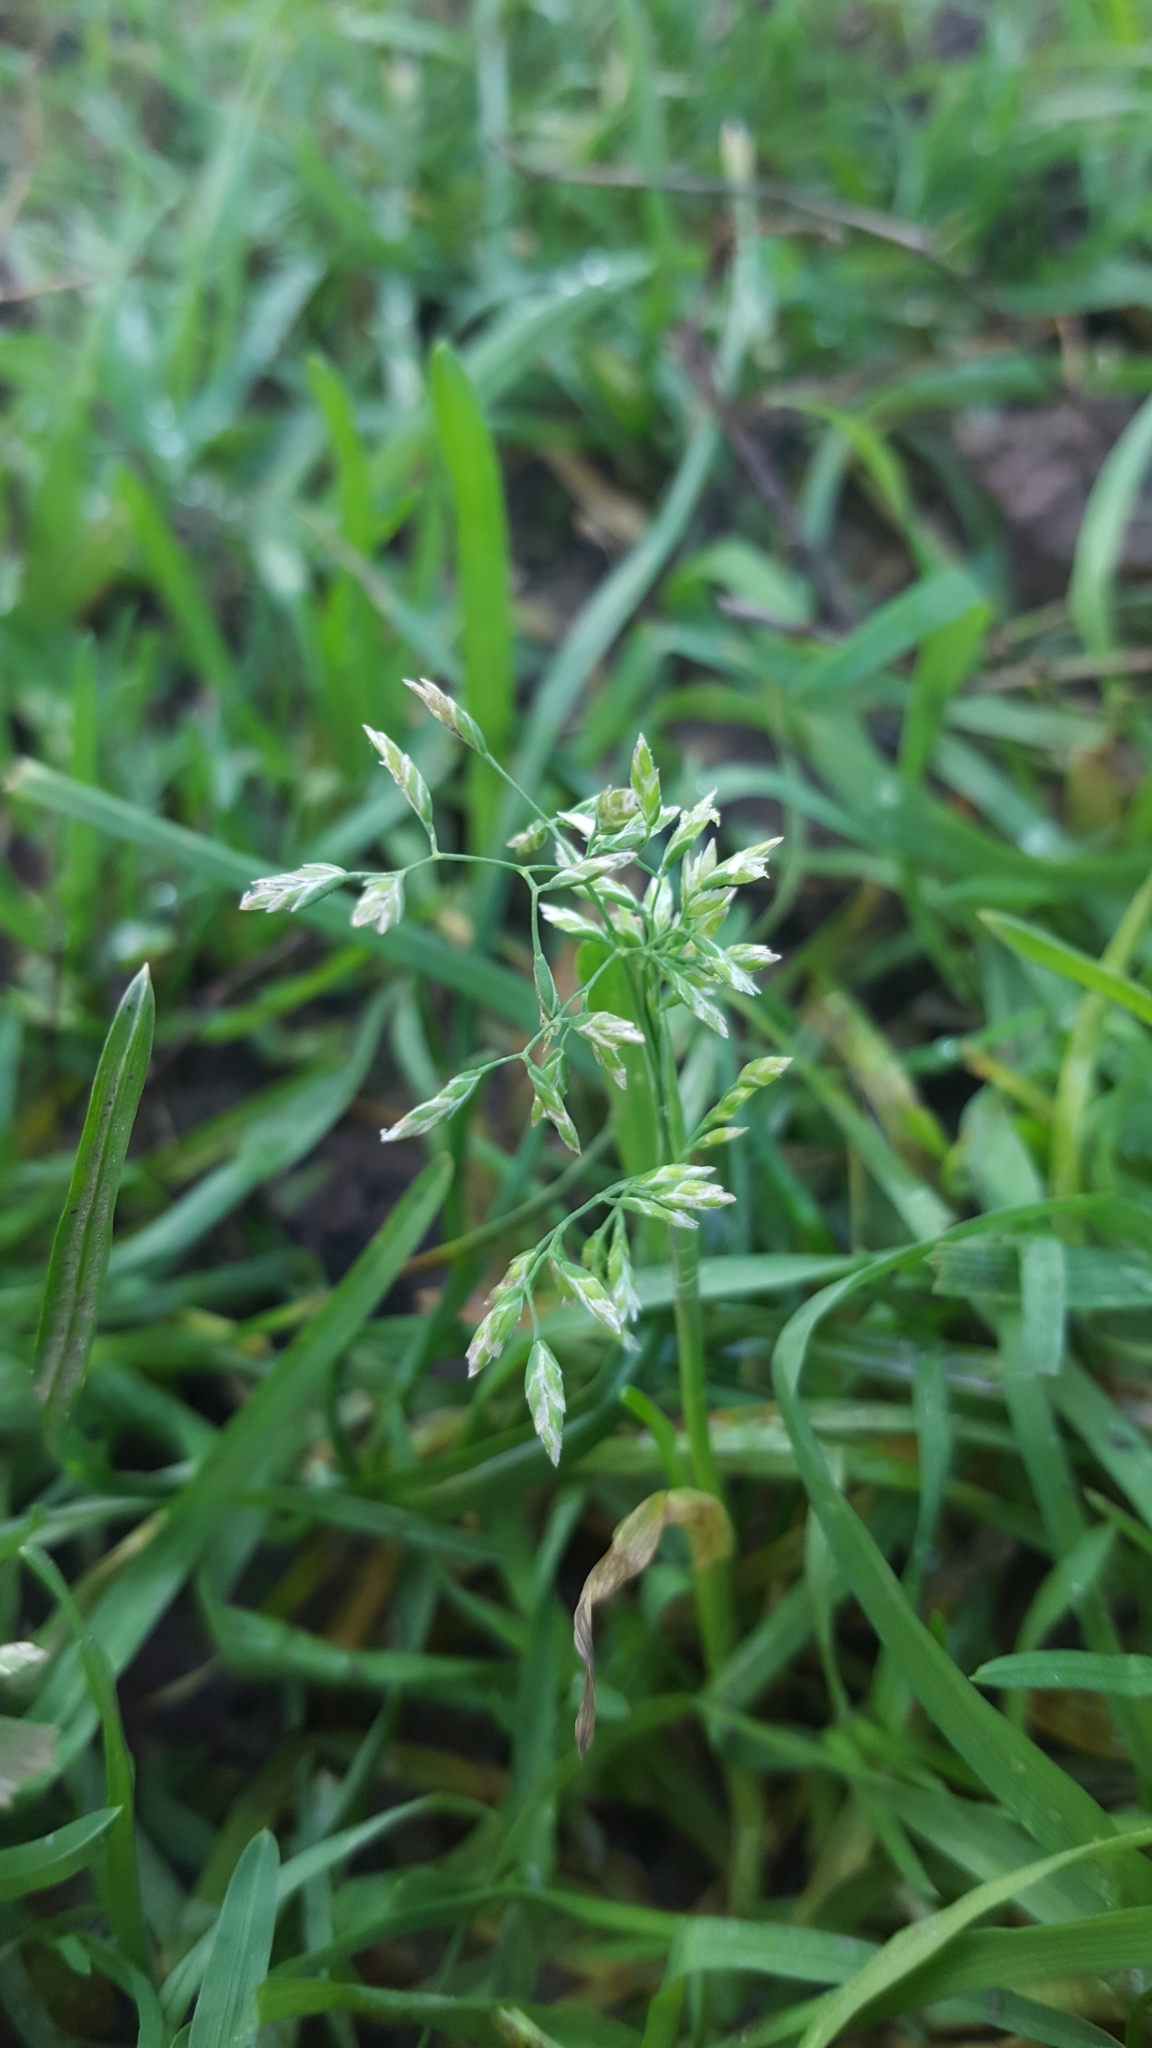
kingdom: Plantae
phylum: Tracheophyta
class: Liliopsida
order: Poales
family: Poaceae
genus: Poa
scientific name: Poa annua
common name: Annual bluegrass
